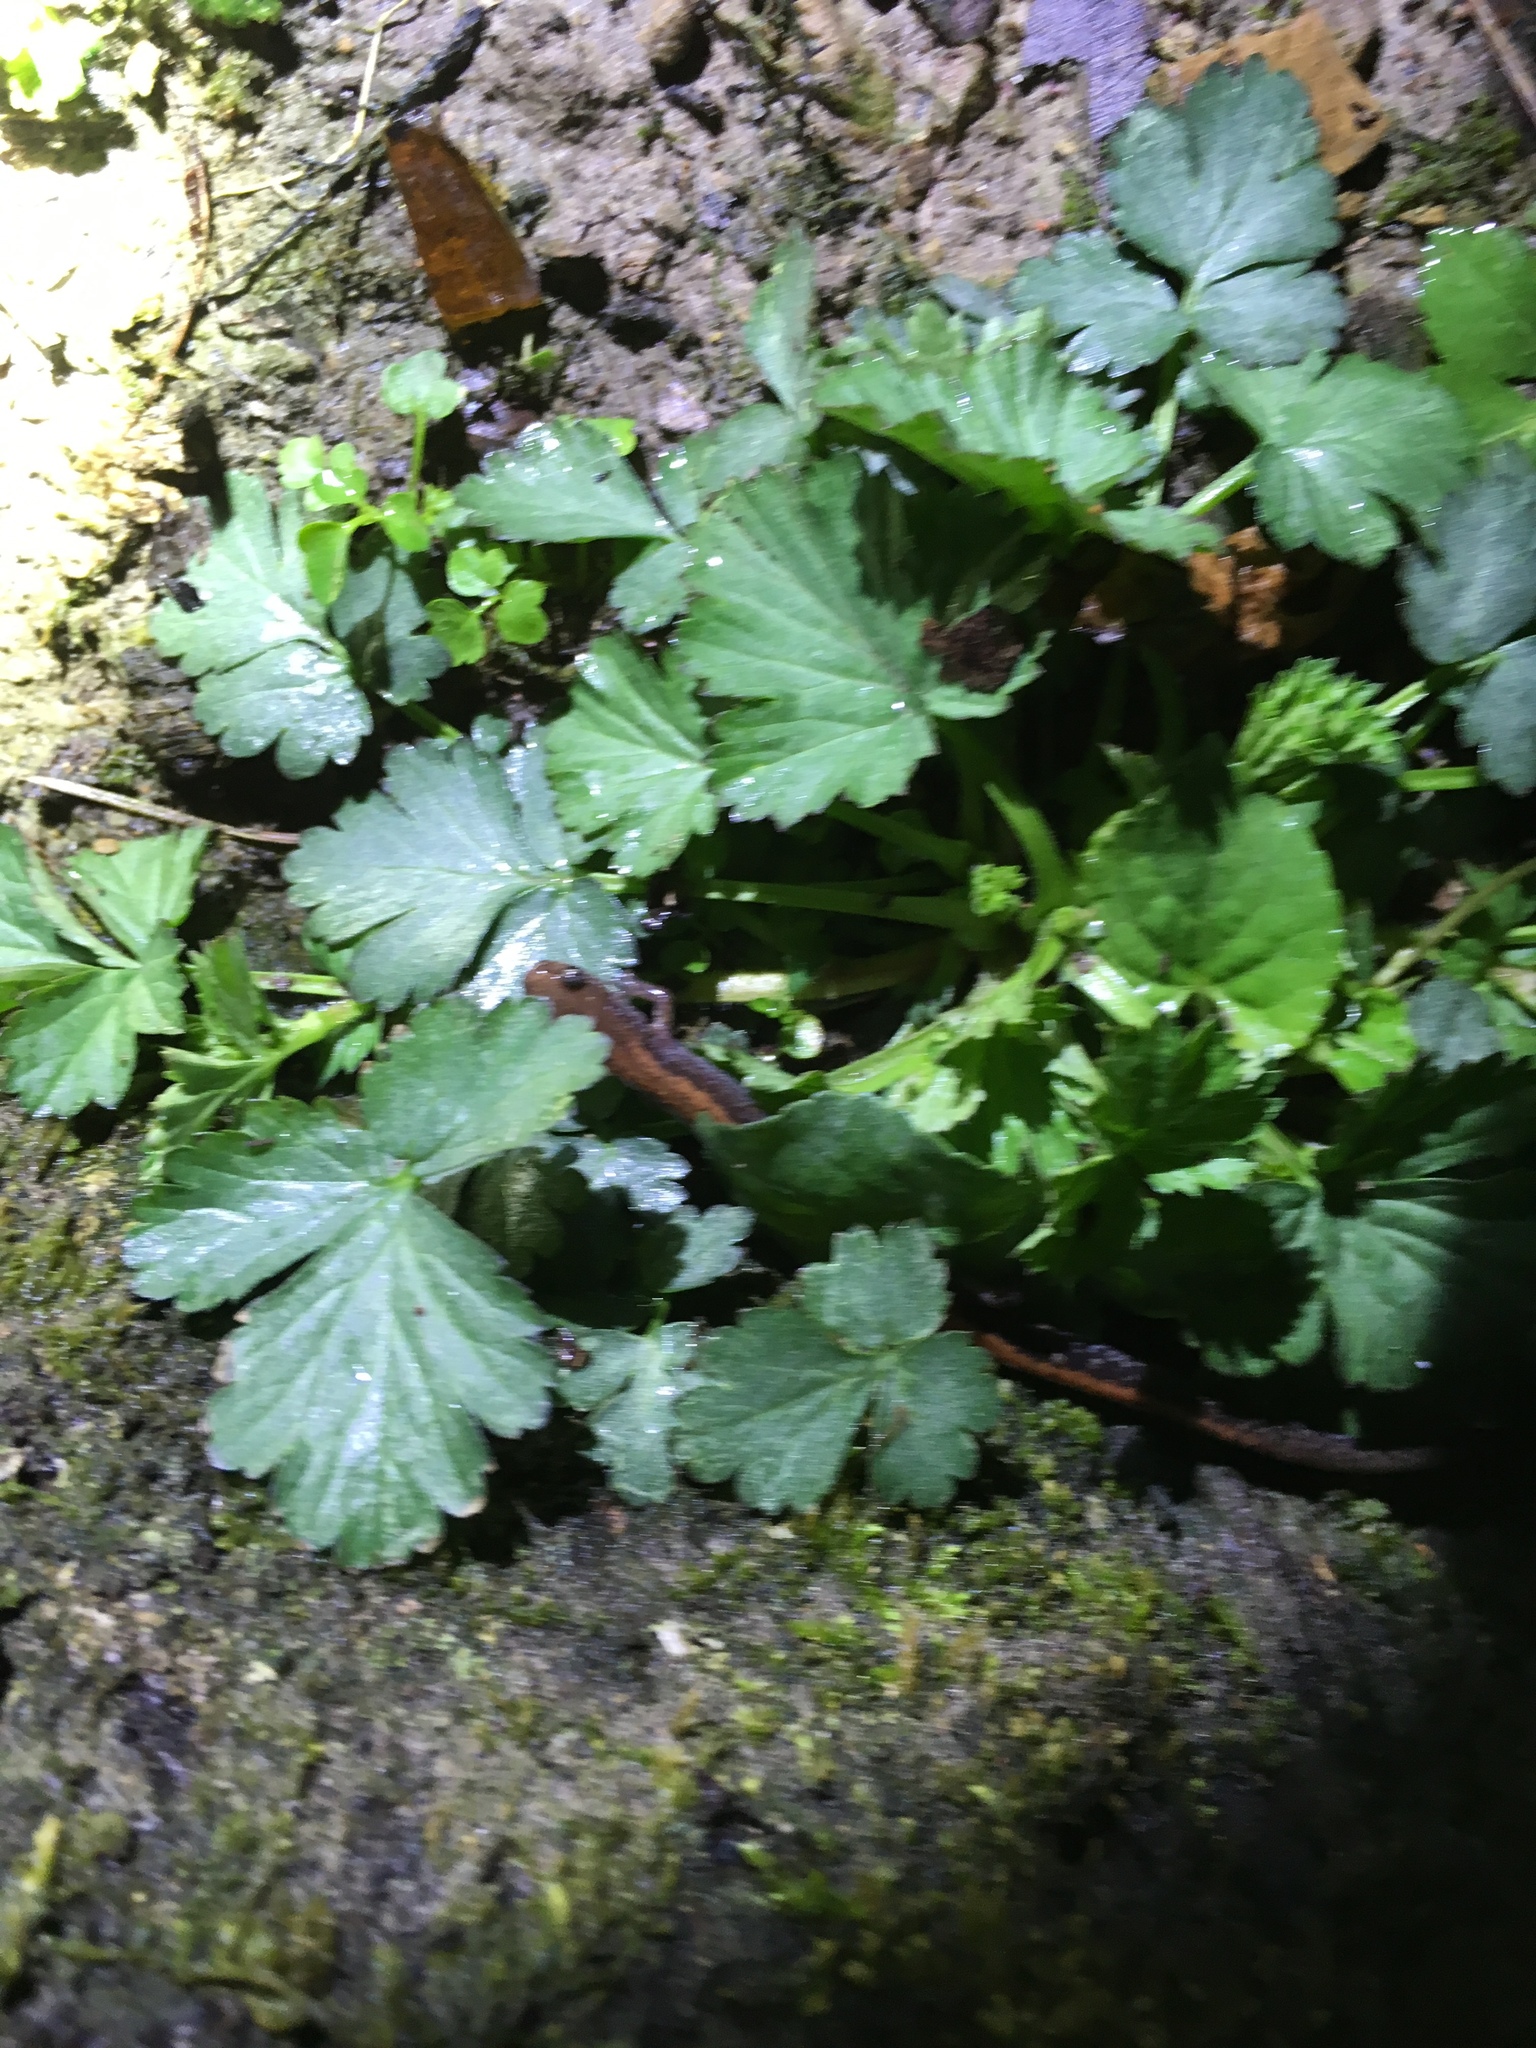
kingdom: Animalia
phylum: Chordata
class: Amphibia
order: Caudata
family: Plethodontidae
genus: Plethodon
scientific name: Plethodon cinereus
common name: Redback salamander
